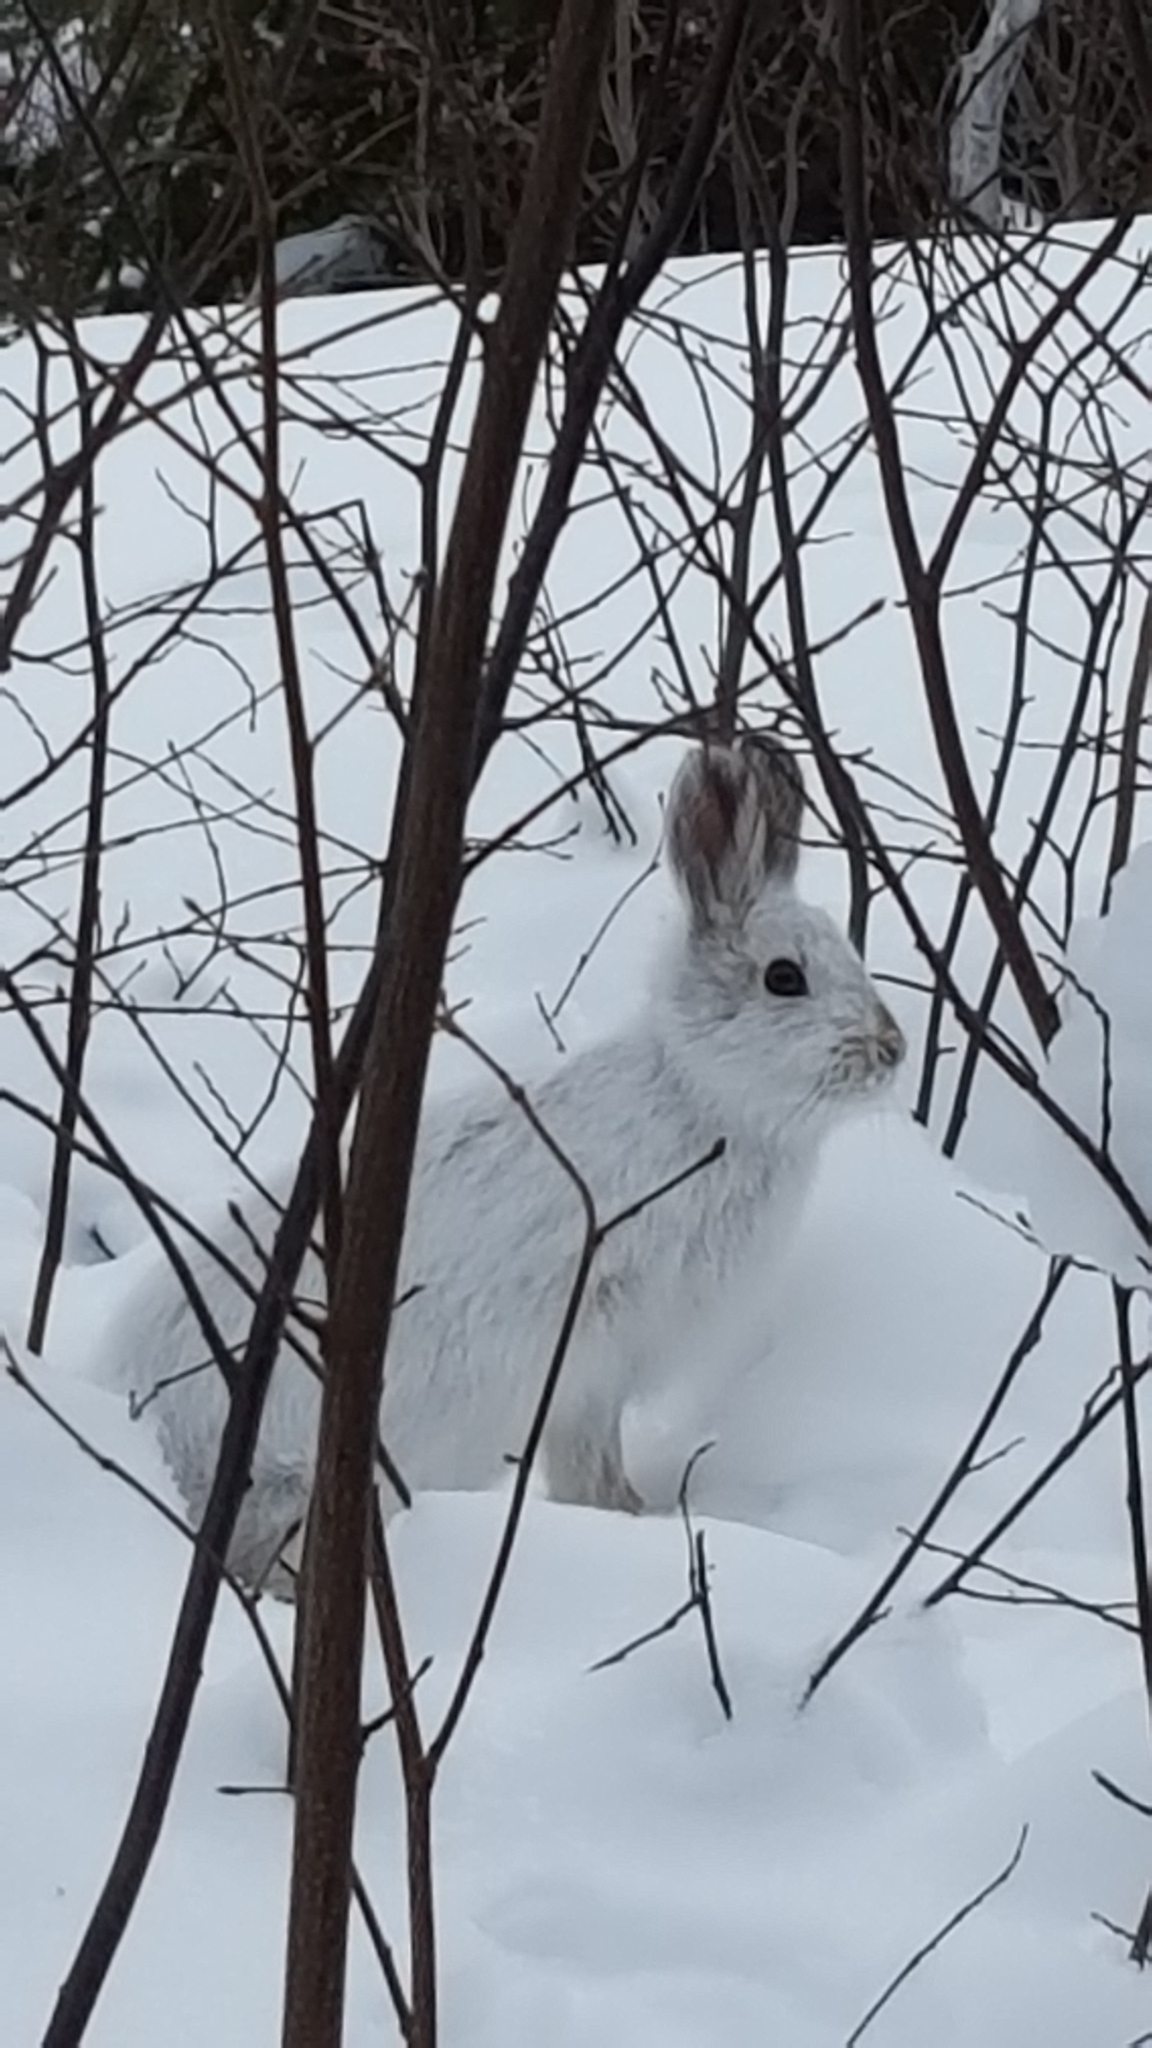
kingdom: Animalia
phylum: Chordata
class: Mammalia
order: Lagomorpha
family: Leporidae
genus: Lepus
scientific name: Lepus americanus
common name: Snowshoe hare
